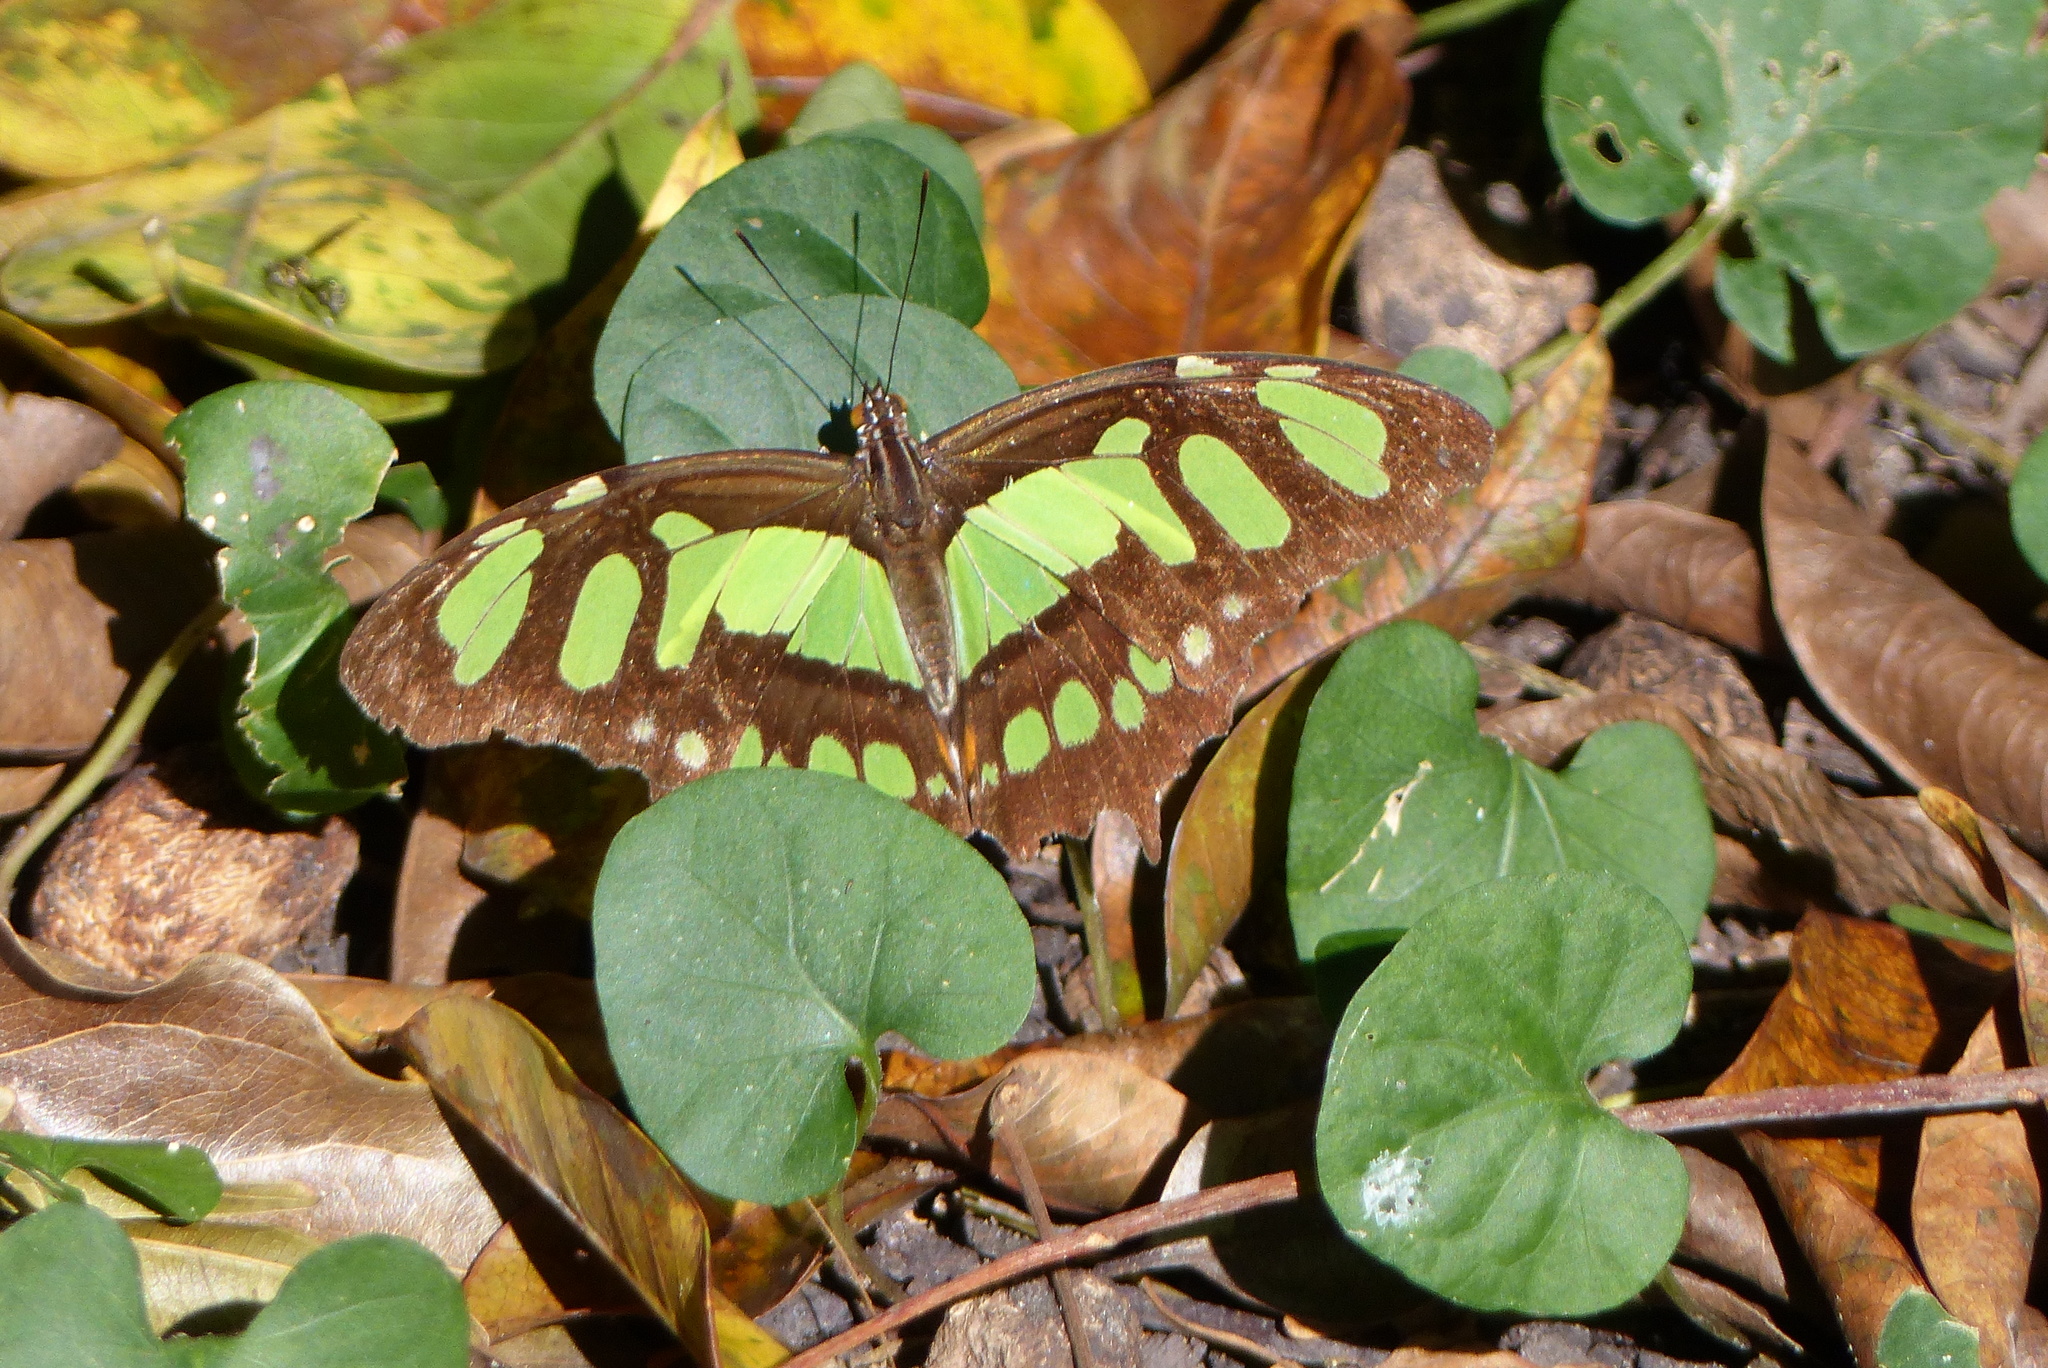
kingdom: Animalia
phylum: Arthropoda
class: Insecta
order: Lepidoptera
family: Nymphalidae
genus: Siproeta
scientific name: Siproeta stelenes
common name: Malachite
